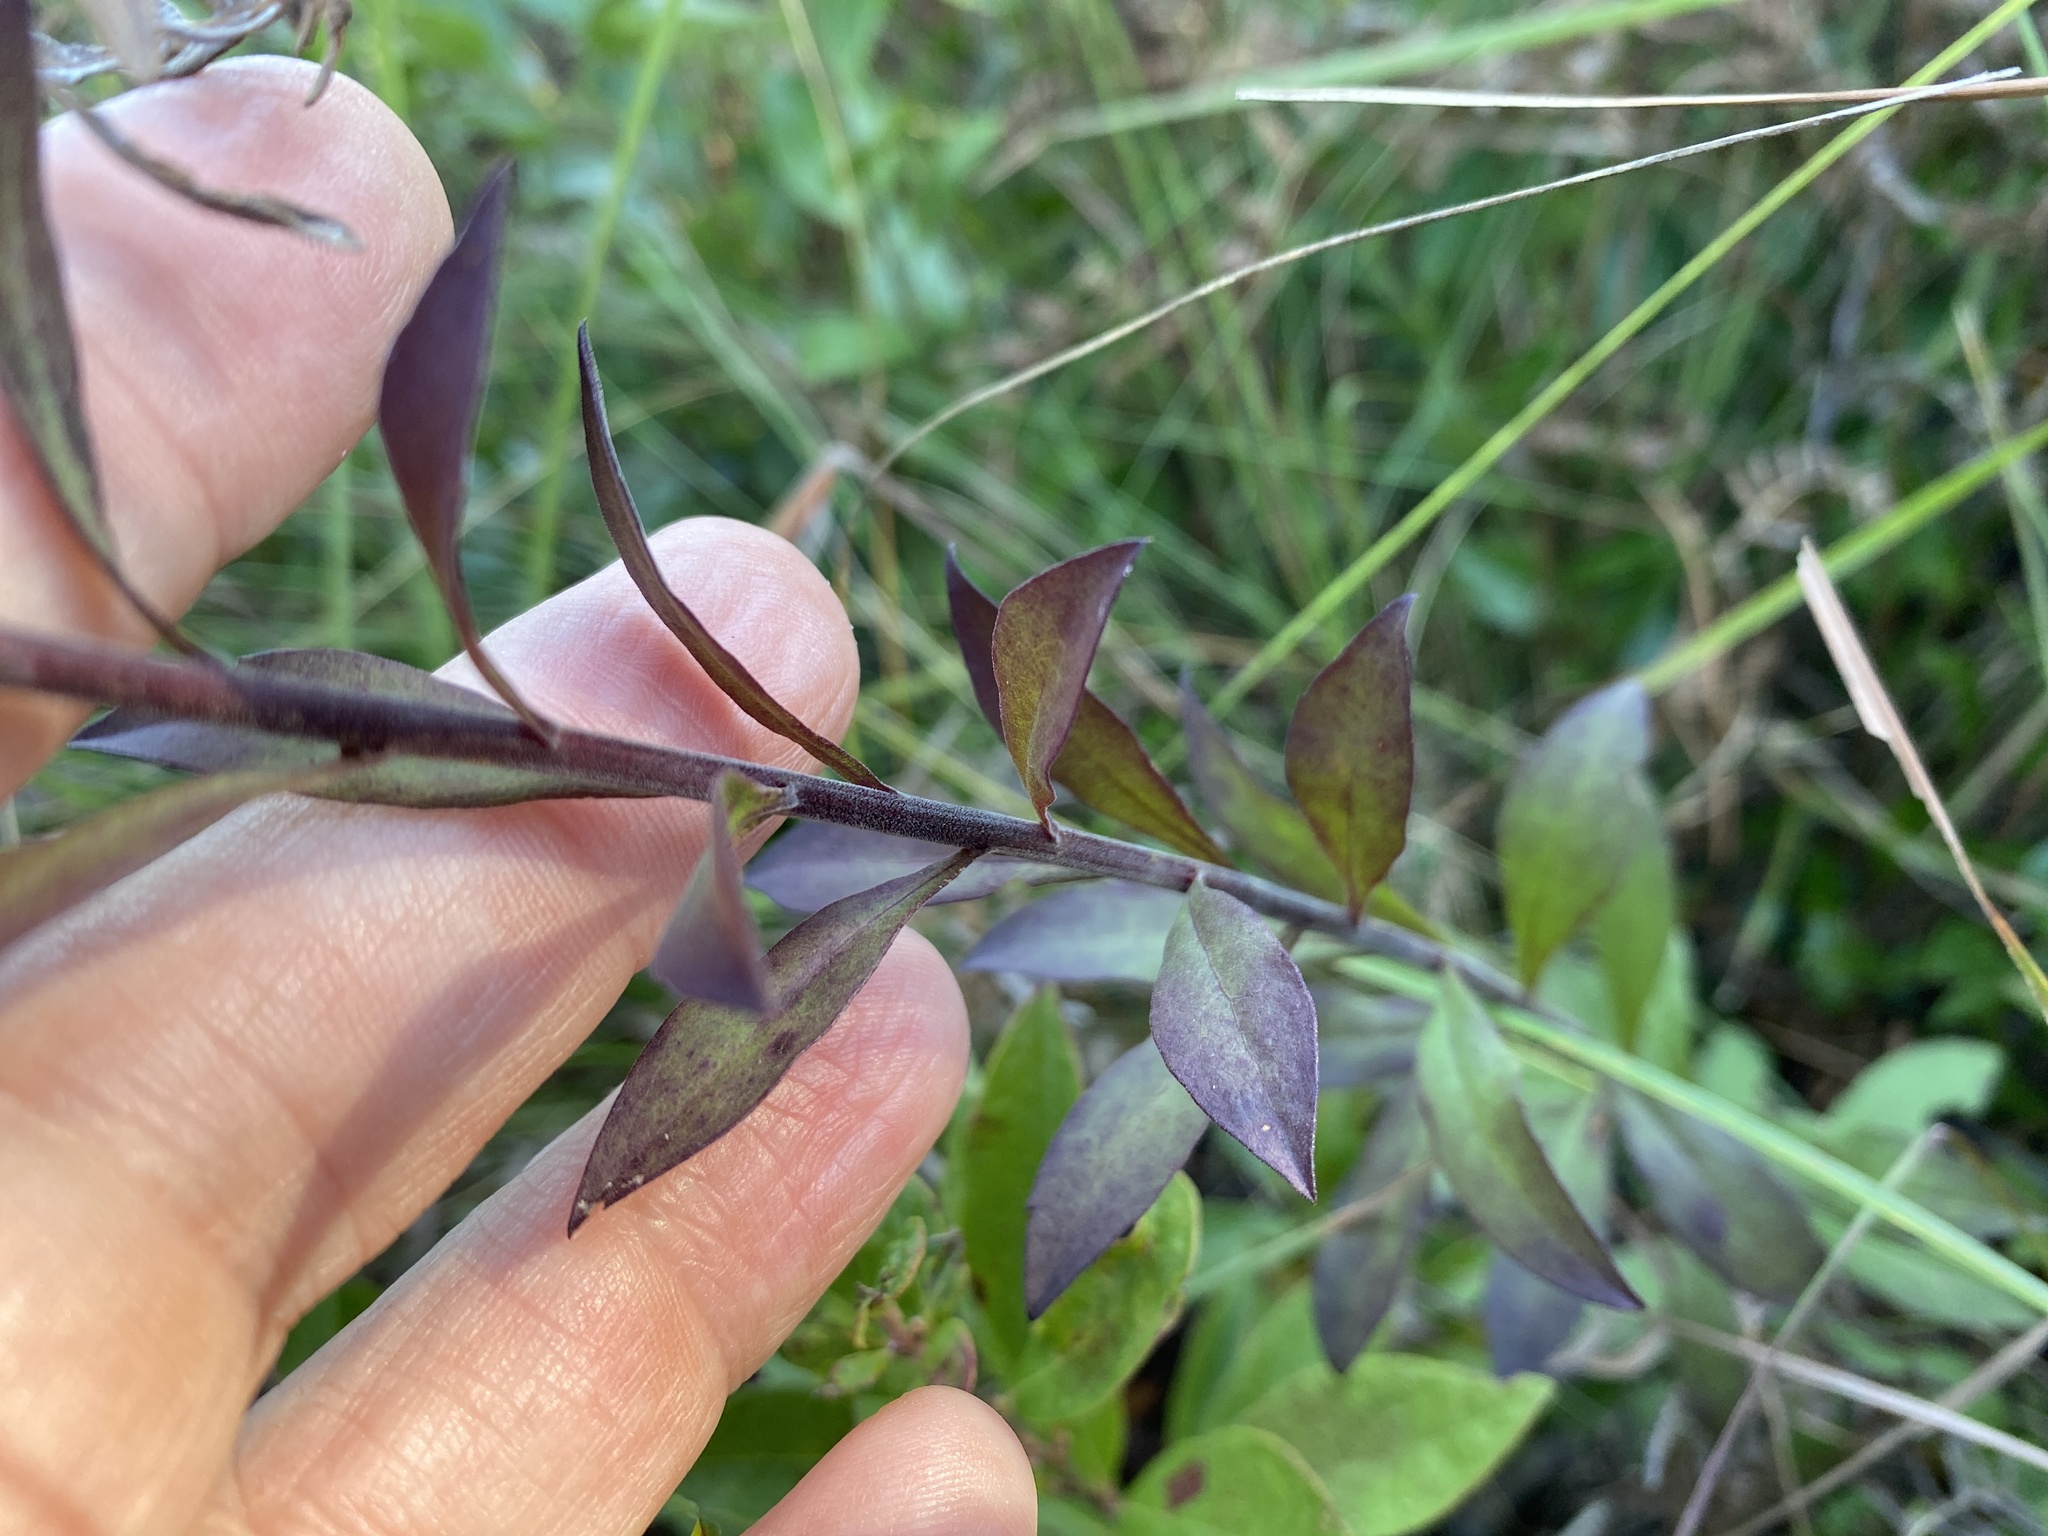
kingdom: Plantae
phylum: Tracheophyta
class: Magnoliopsida
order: Asterales
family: Asteraceae
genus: Solidago
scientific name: Solidago pulverulenta
